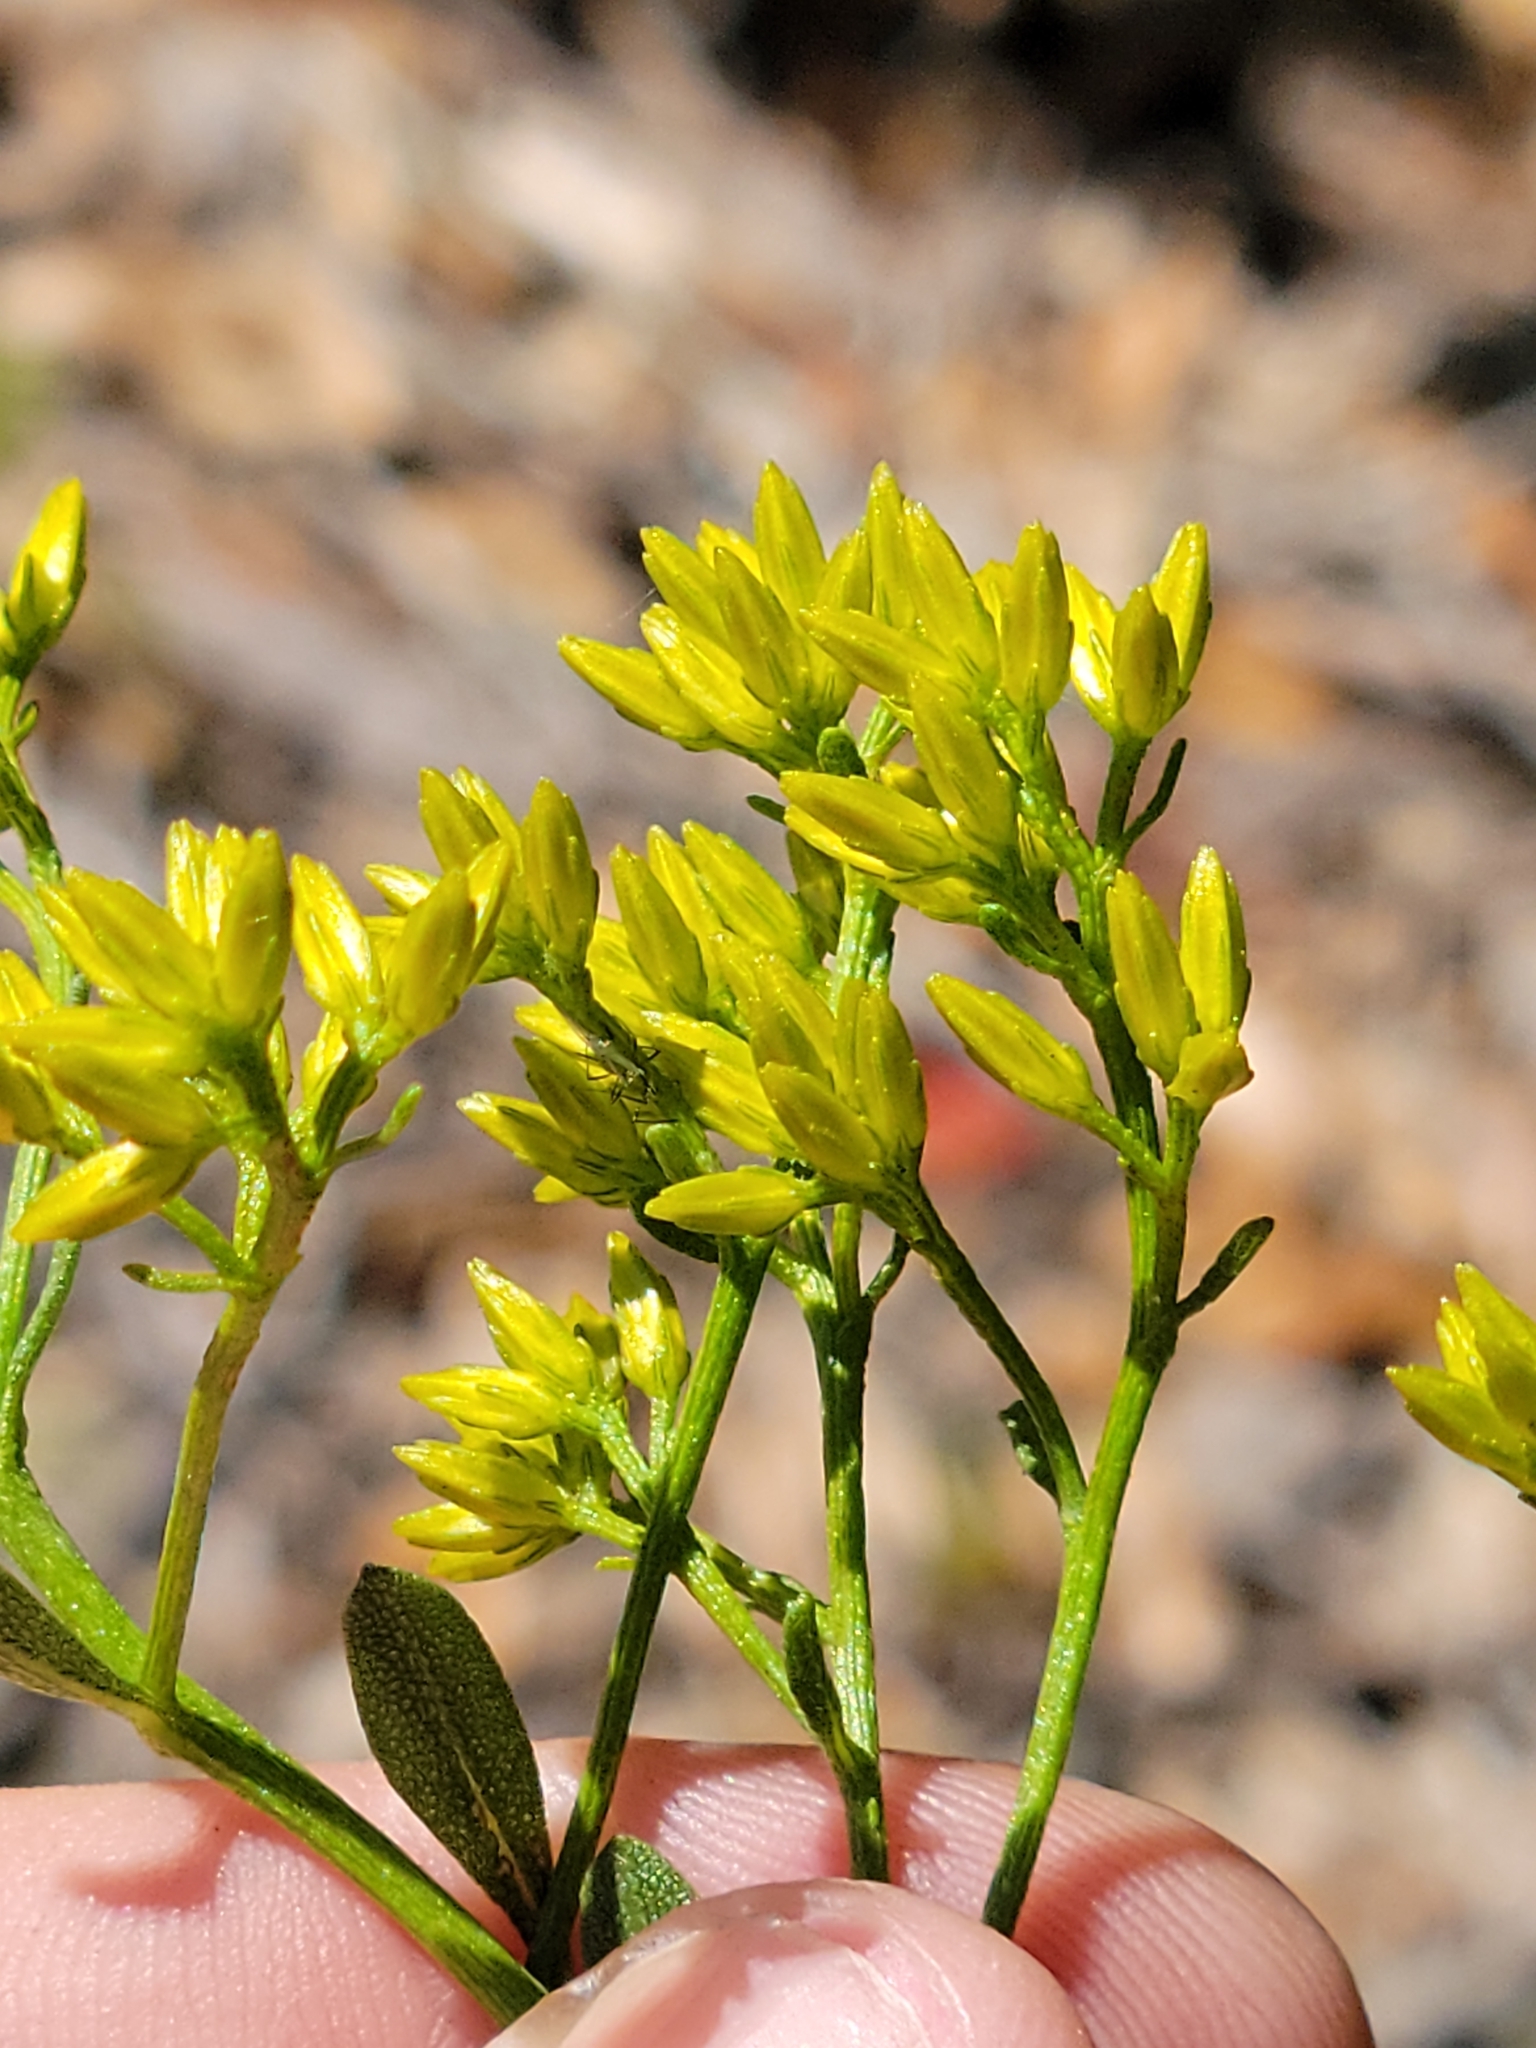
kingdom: Plantae
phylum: Tracheophyta
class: Magnoliopsida
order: Asterales
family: Asteraceae
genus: Chrysoma
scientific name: Chrysoma pauciflosculosa
